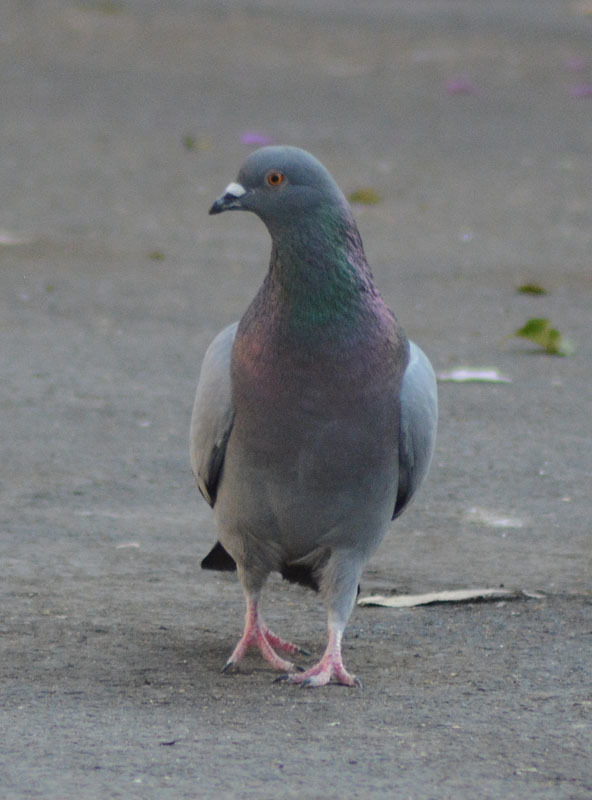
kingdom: Animalia
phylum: Chordata
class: Aves
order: Columbiformes
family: Columbidae
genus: Columba
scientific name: Columba livia
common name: Rock pigeon
